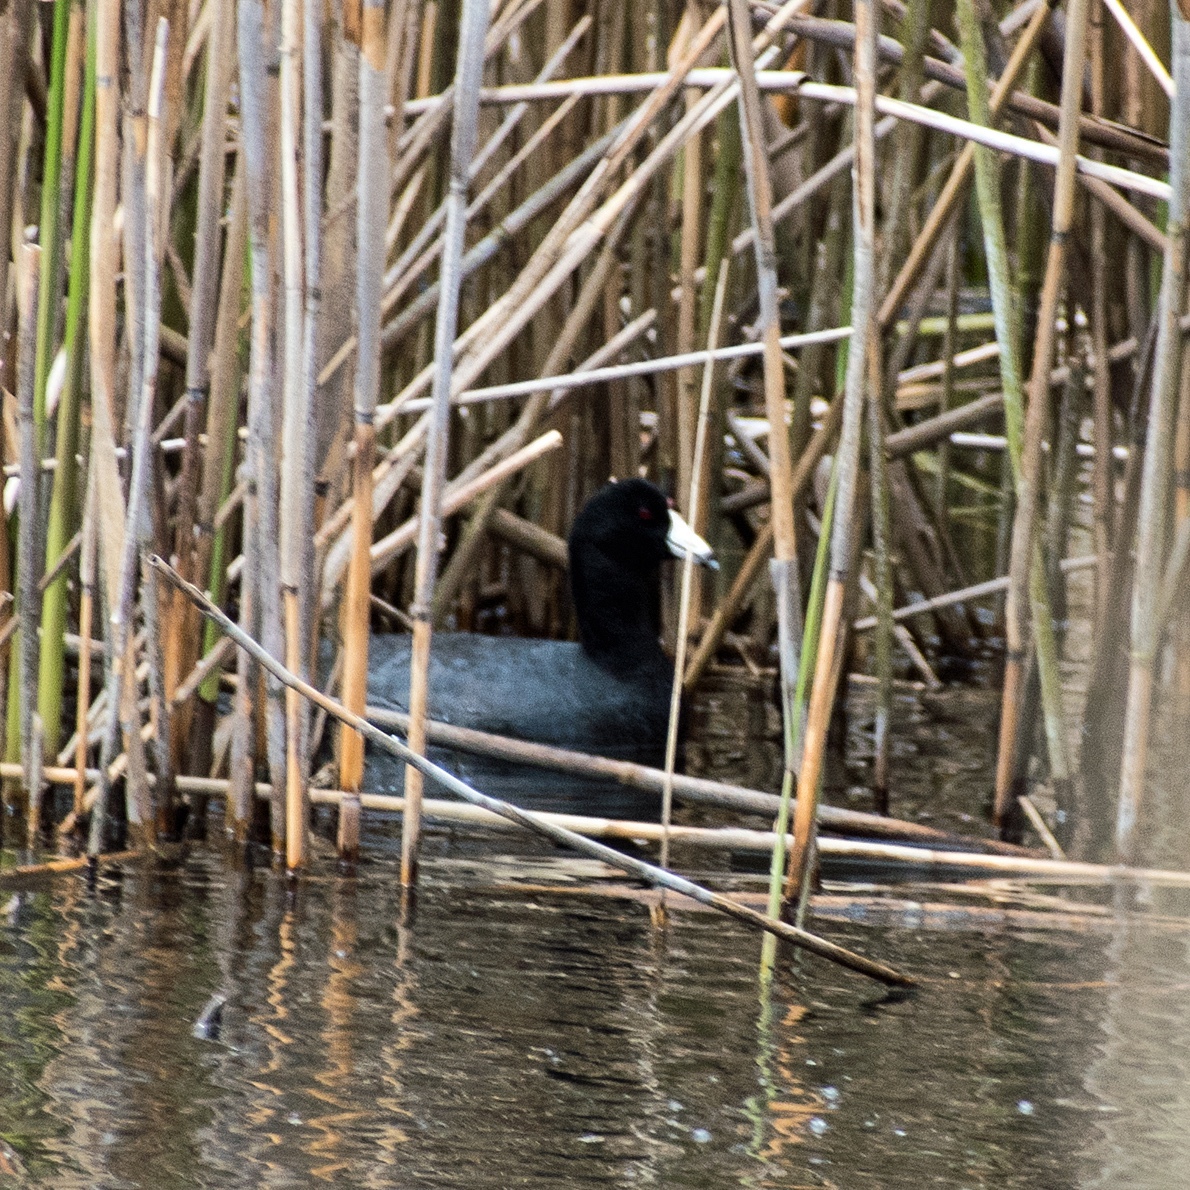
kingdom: Animalia
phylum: Chordata
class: Aves
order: Gruiformes
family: Rallidae
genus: Fulica
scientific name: Fulica americana
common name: American coot
